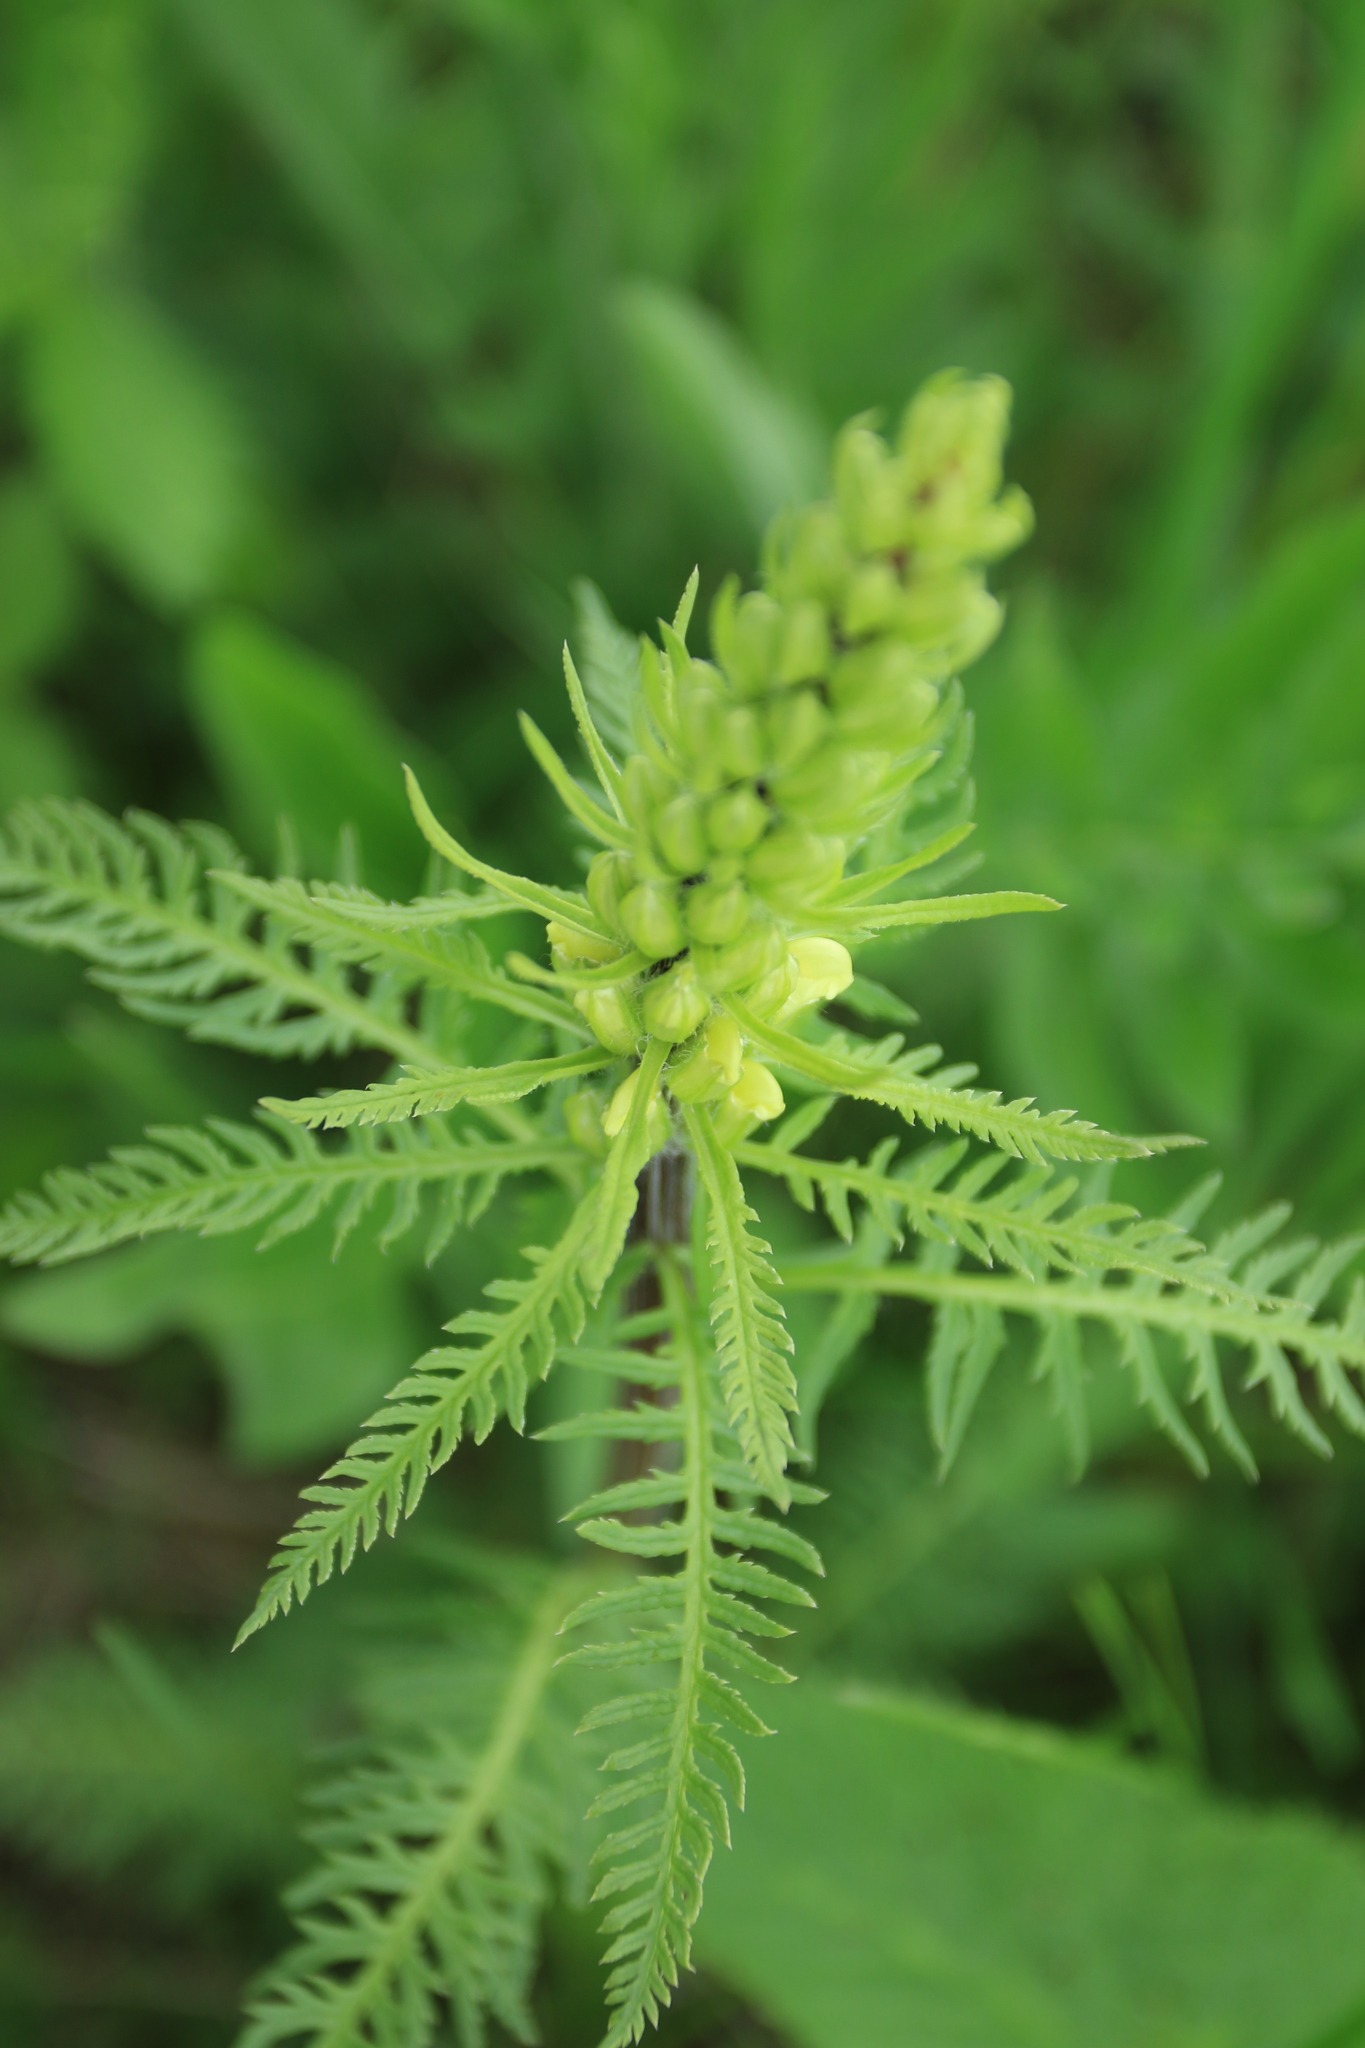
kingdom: Plantae
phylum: Tracheophyta
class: Magnoliopsida
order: Lamiales
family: Orobanchaceae
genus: Pedicularis
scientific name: Pedicularis sibirica
